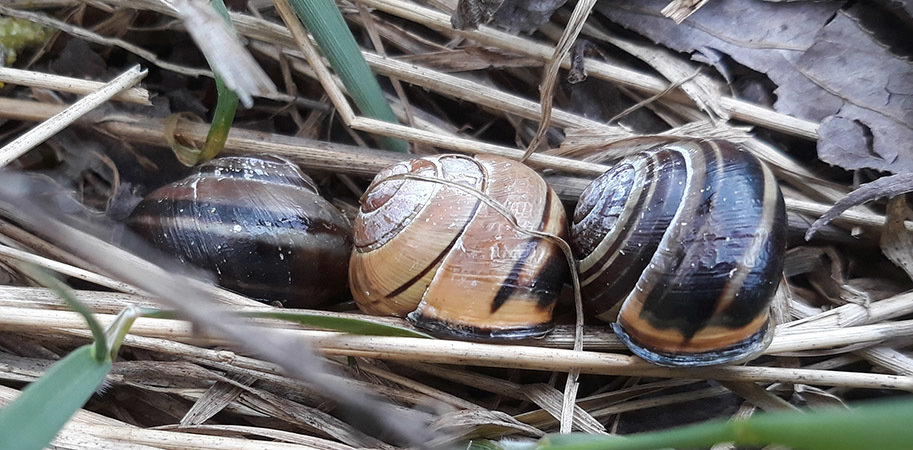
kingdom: Animalia
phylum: Mollusca
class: Gastropoda
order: Stylommatophora
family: Helicidae
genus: Cepaea
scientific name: Cepaea nemoralis
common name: Grovesnail
